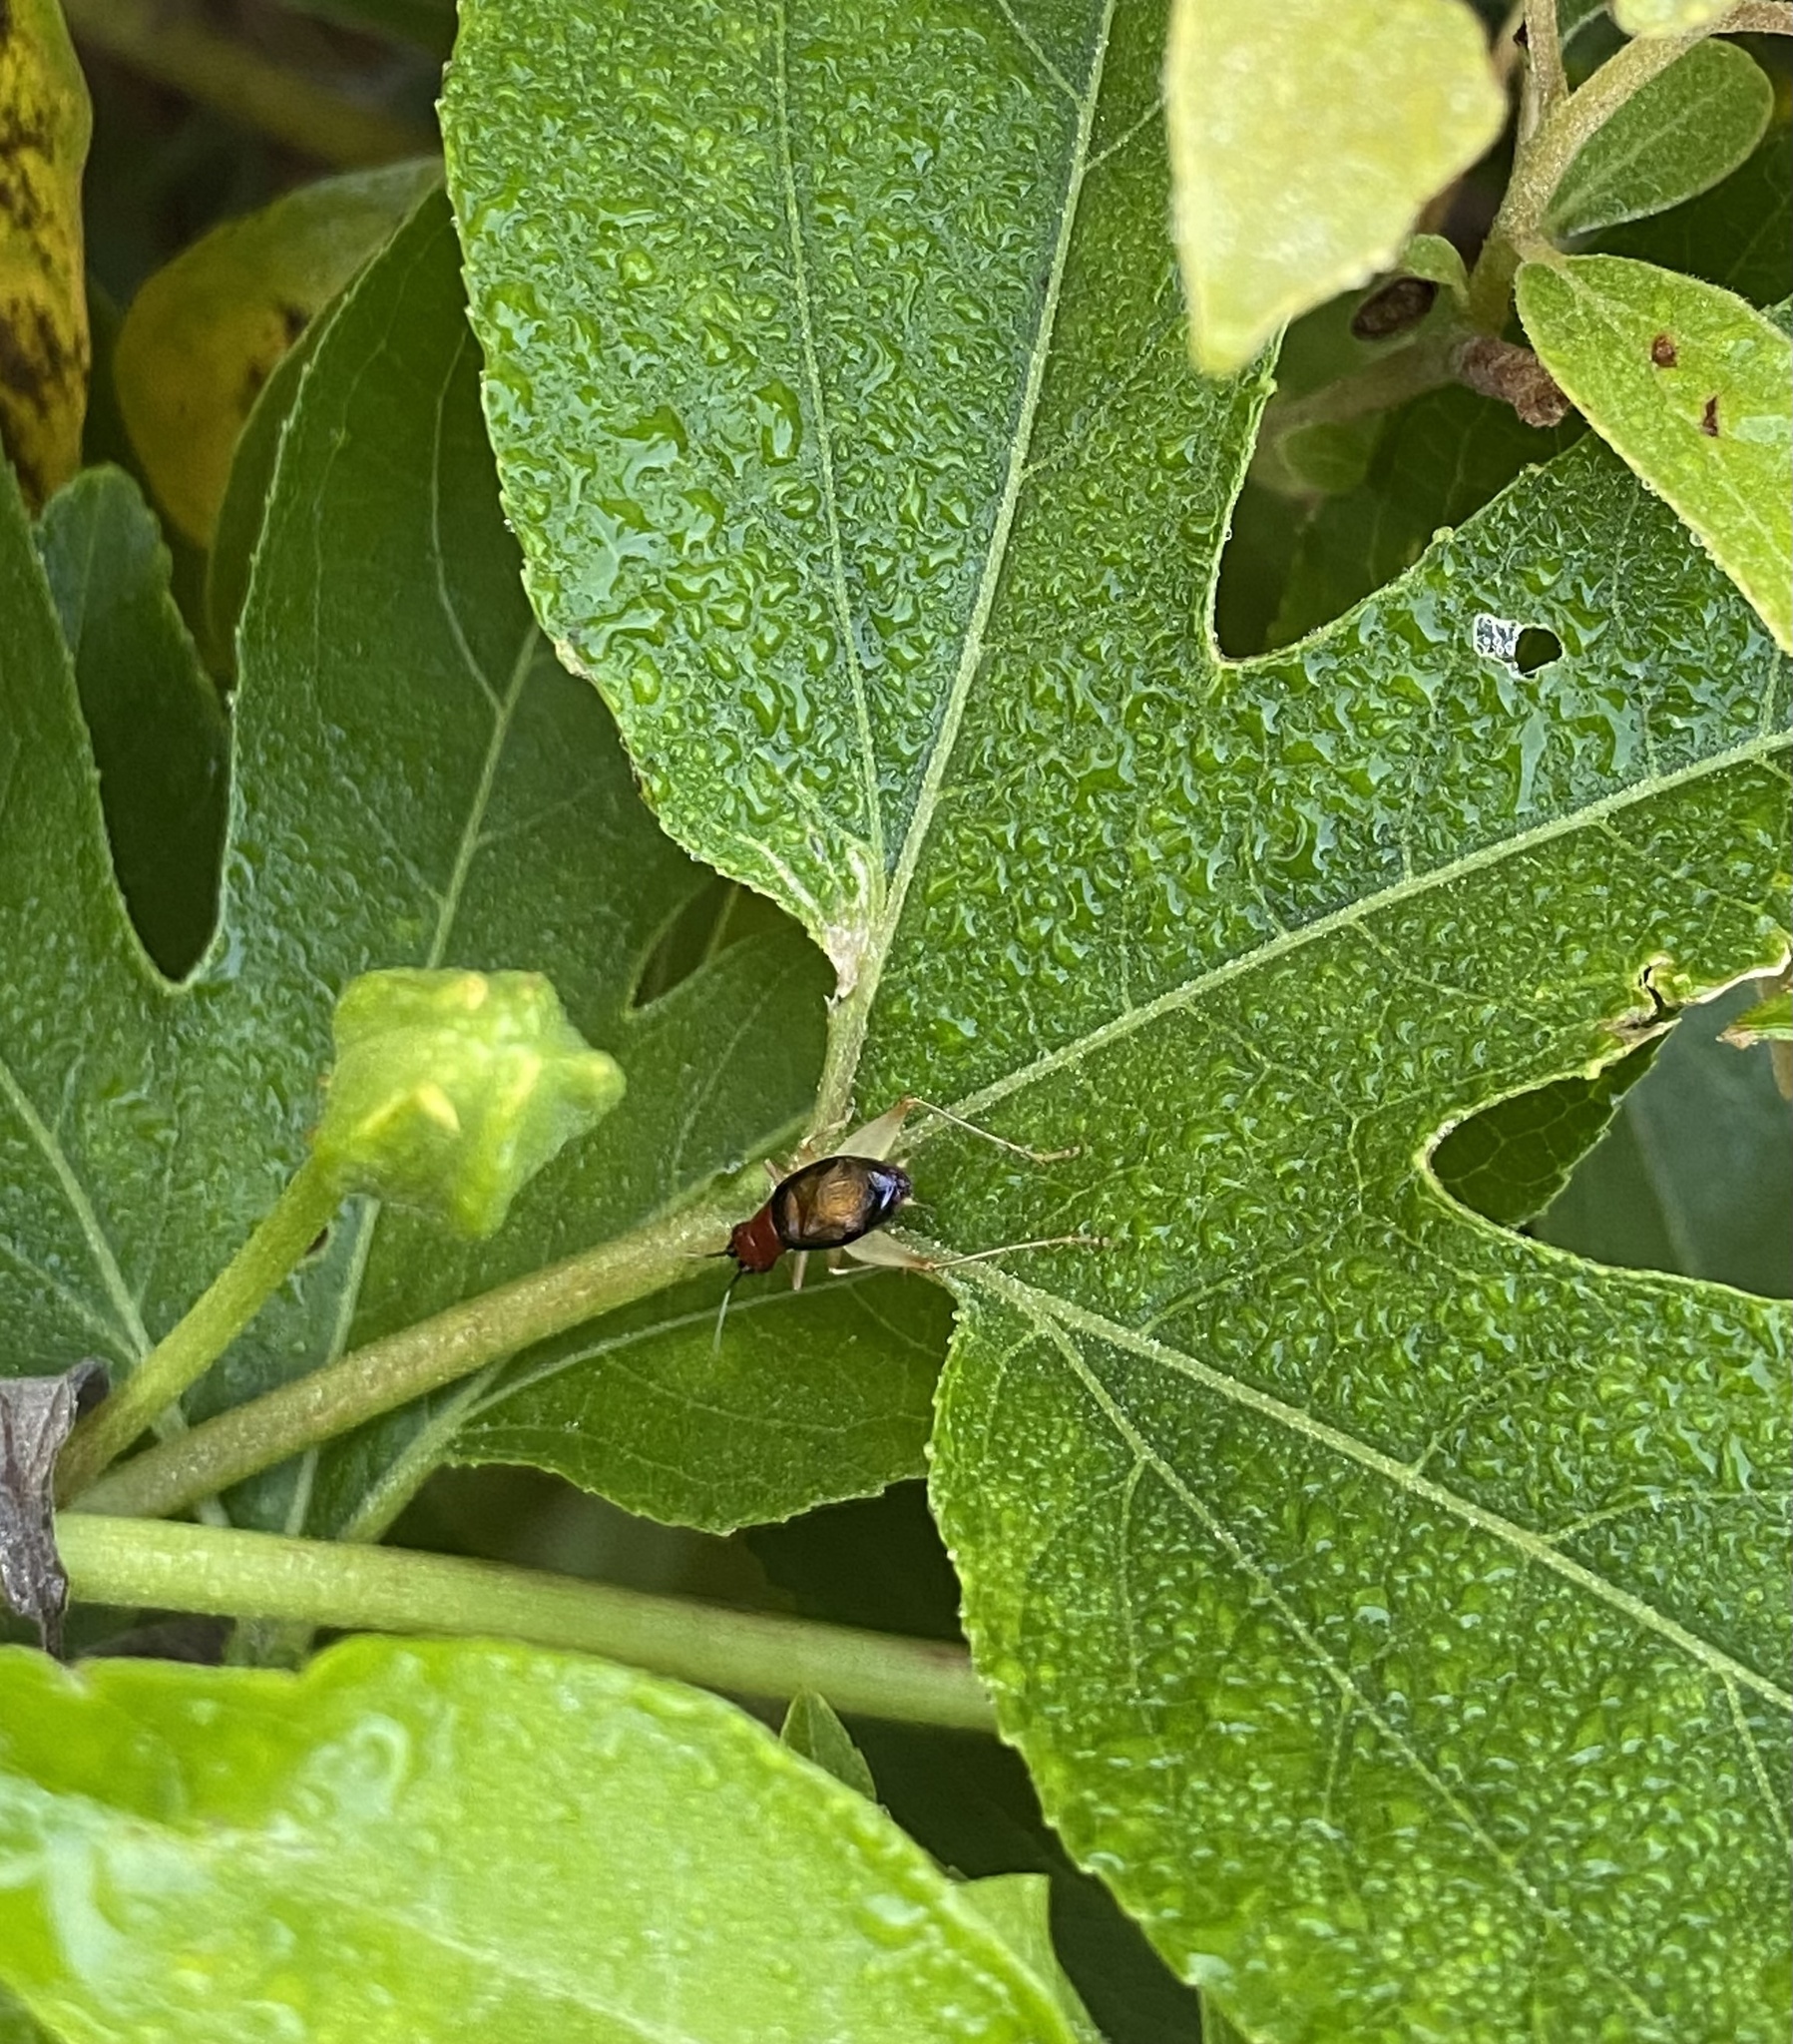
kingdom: Animalia
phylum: Arthropoda
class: Insecta
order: Orthoptera
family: Trigonidiidae
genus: Phyllopalpus
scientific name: Phyllopalpus pulchellus
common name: Handsome trig
